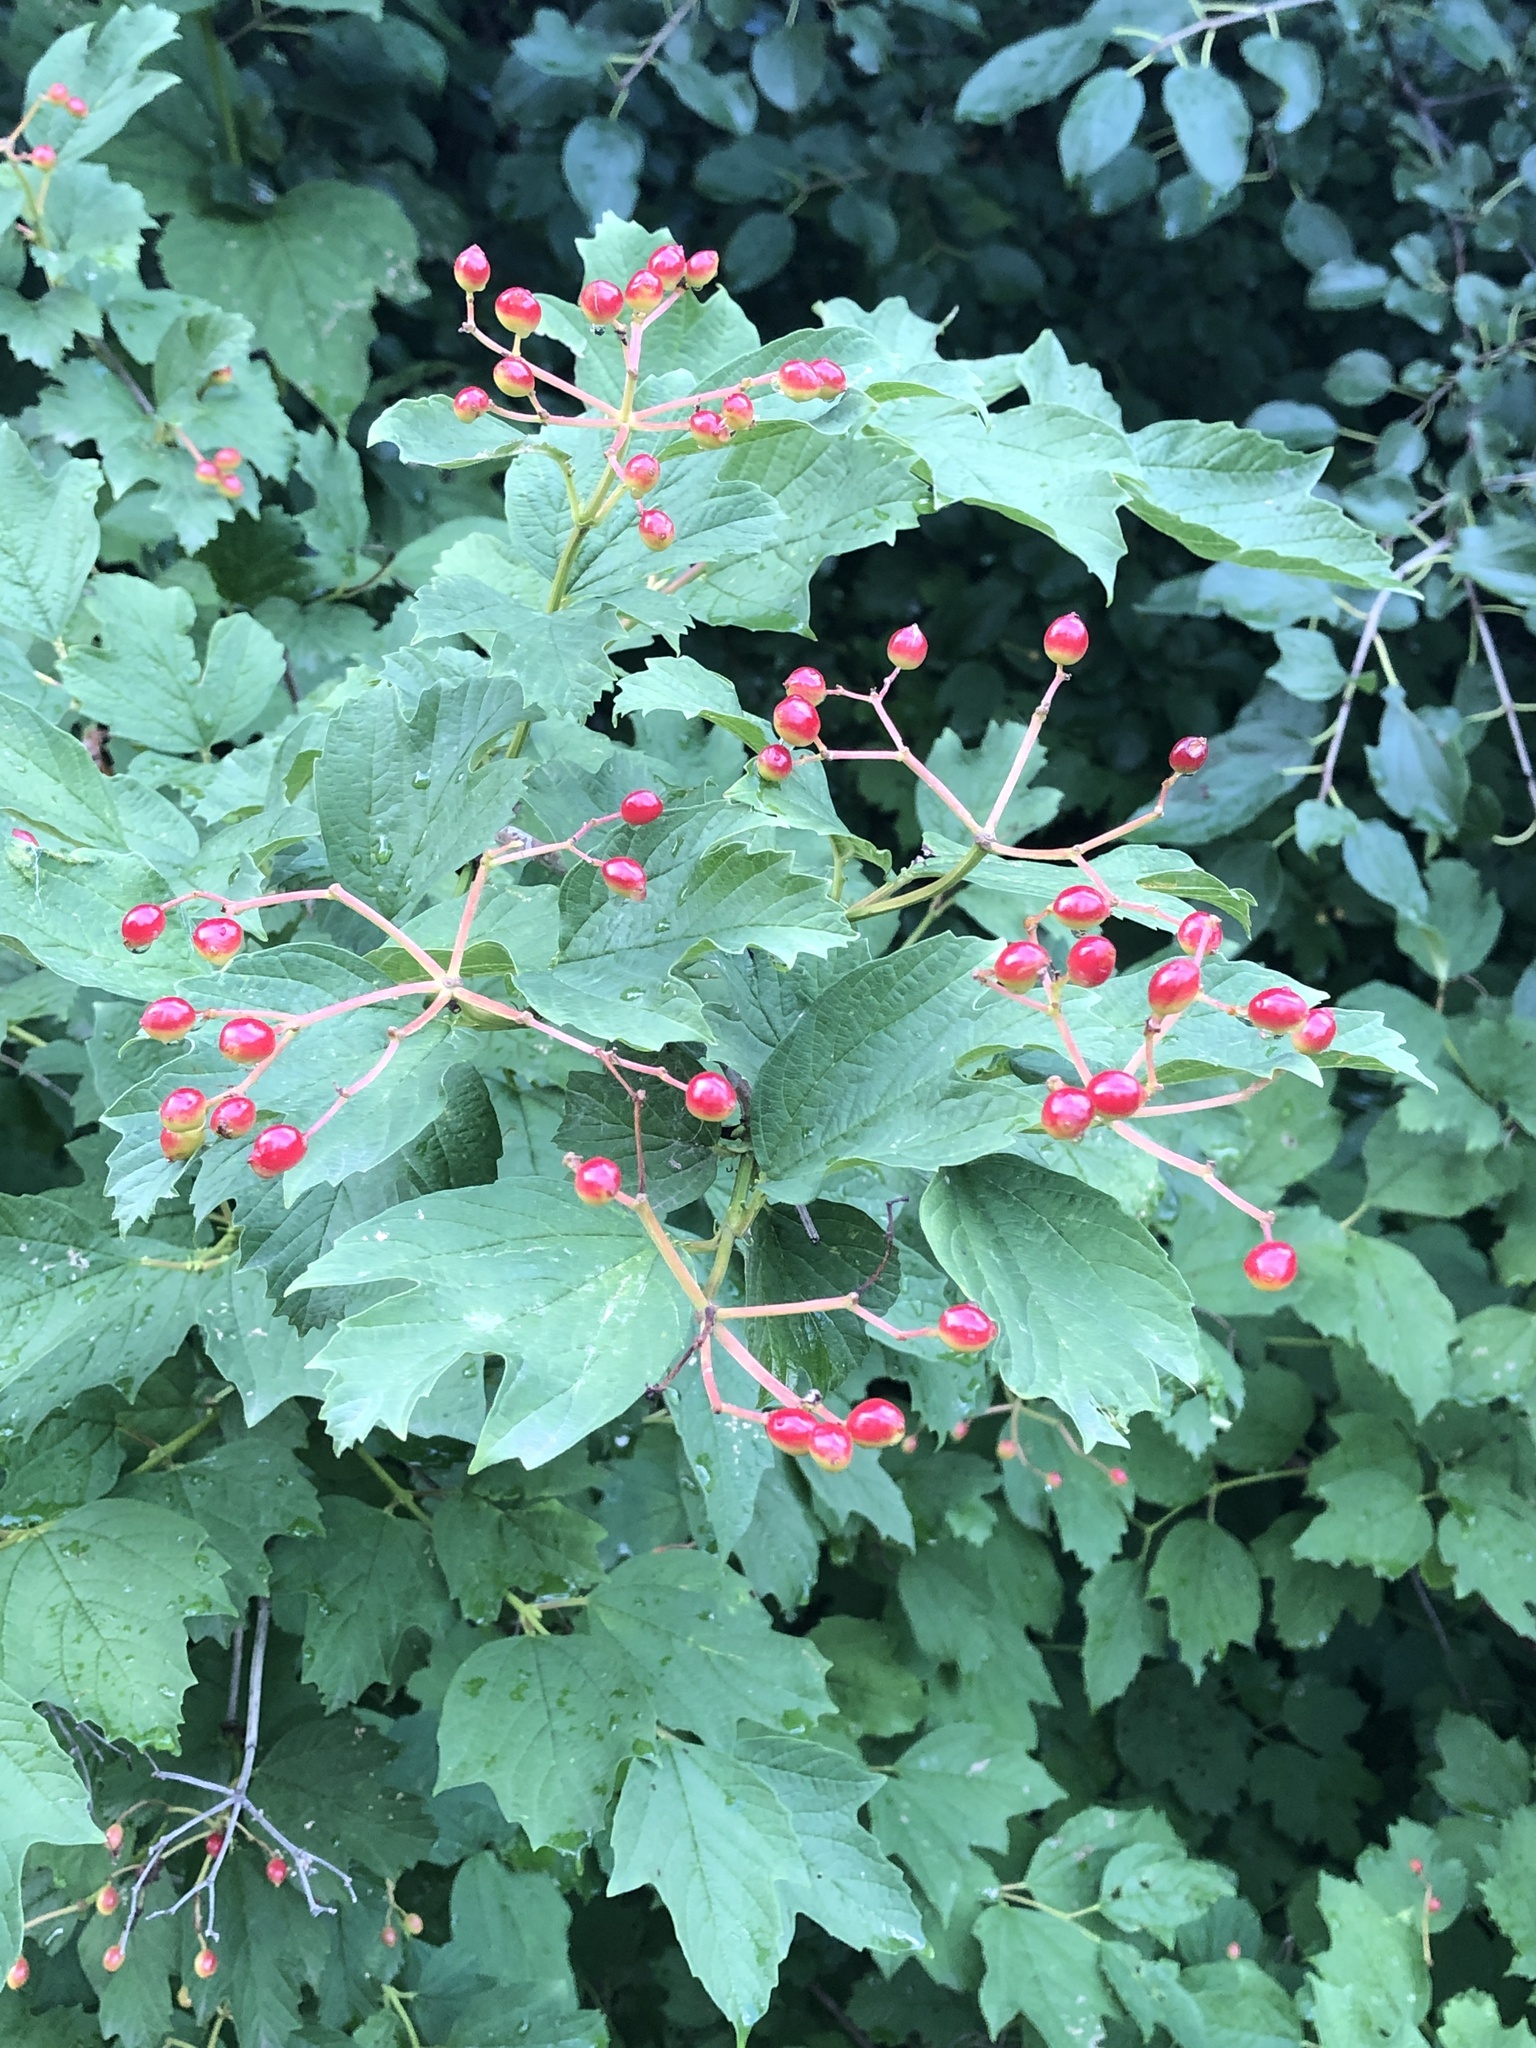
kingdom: Plantae
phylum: Tracheophyta
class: Magnoliopsida
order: Dipsacales
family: Viburnaceae
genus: Viburnum
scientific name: Viburnum opulus
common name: Guelder-rose
